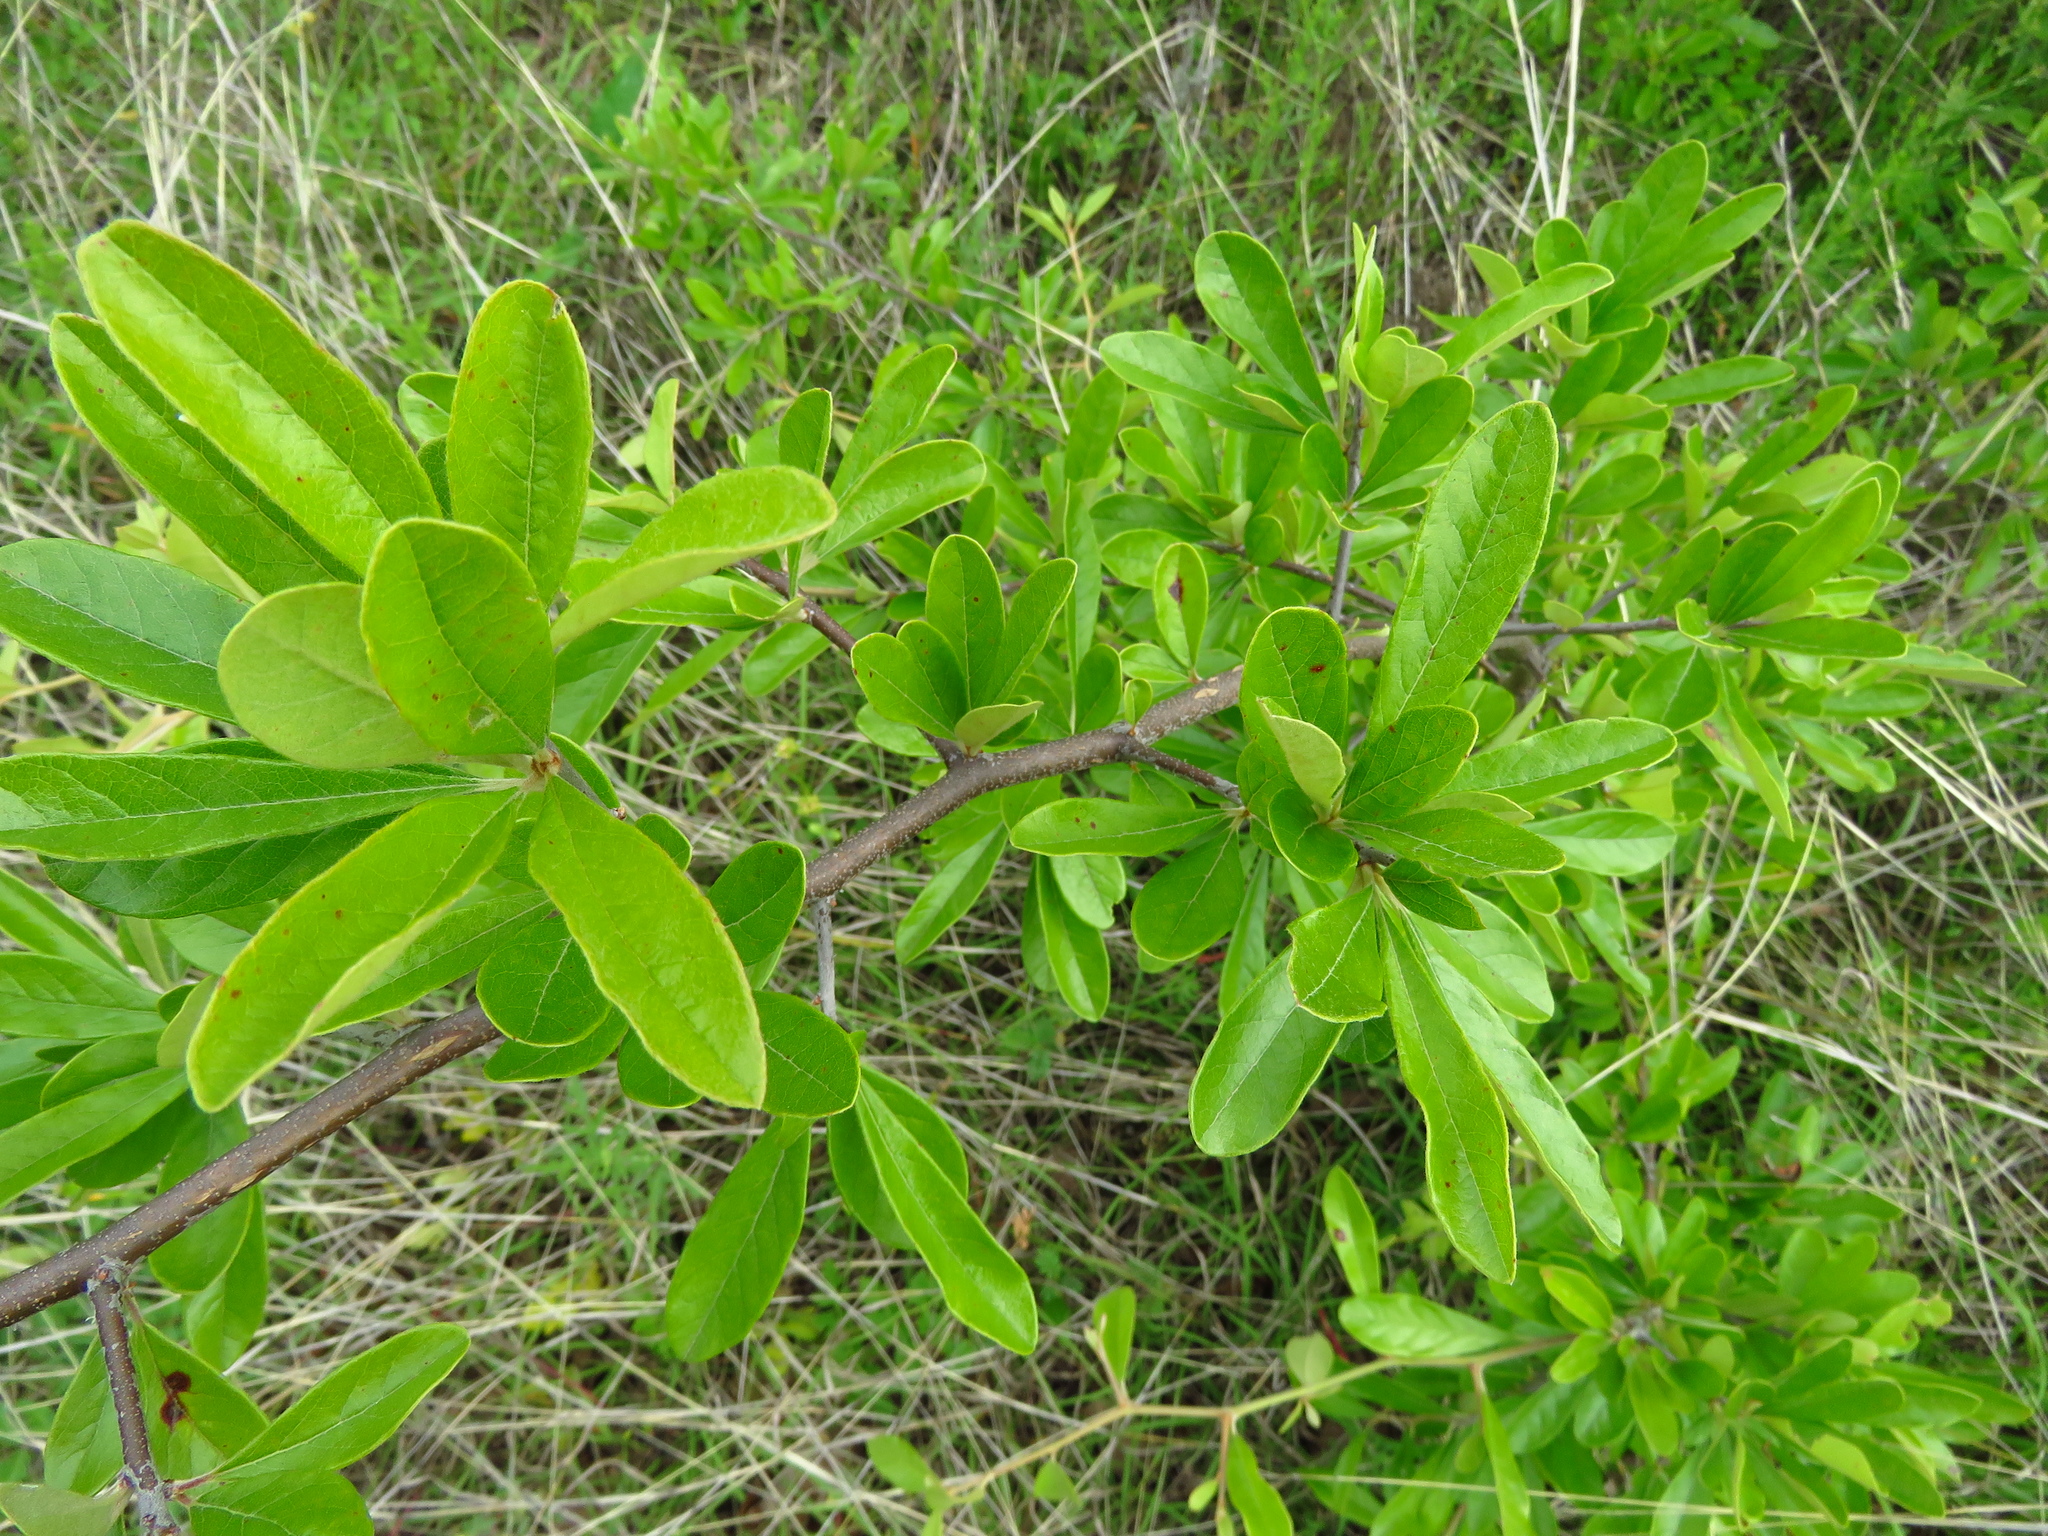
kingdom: Plantae
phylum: Tracheophyta
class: Magnoliopsida
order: Ericales
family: Sapotaceae
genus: Sideroxylon
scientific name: Sideroxylon lanuginosum
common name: Chittamwood
